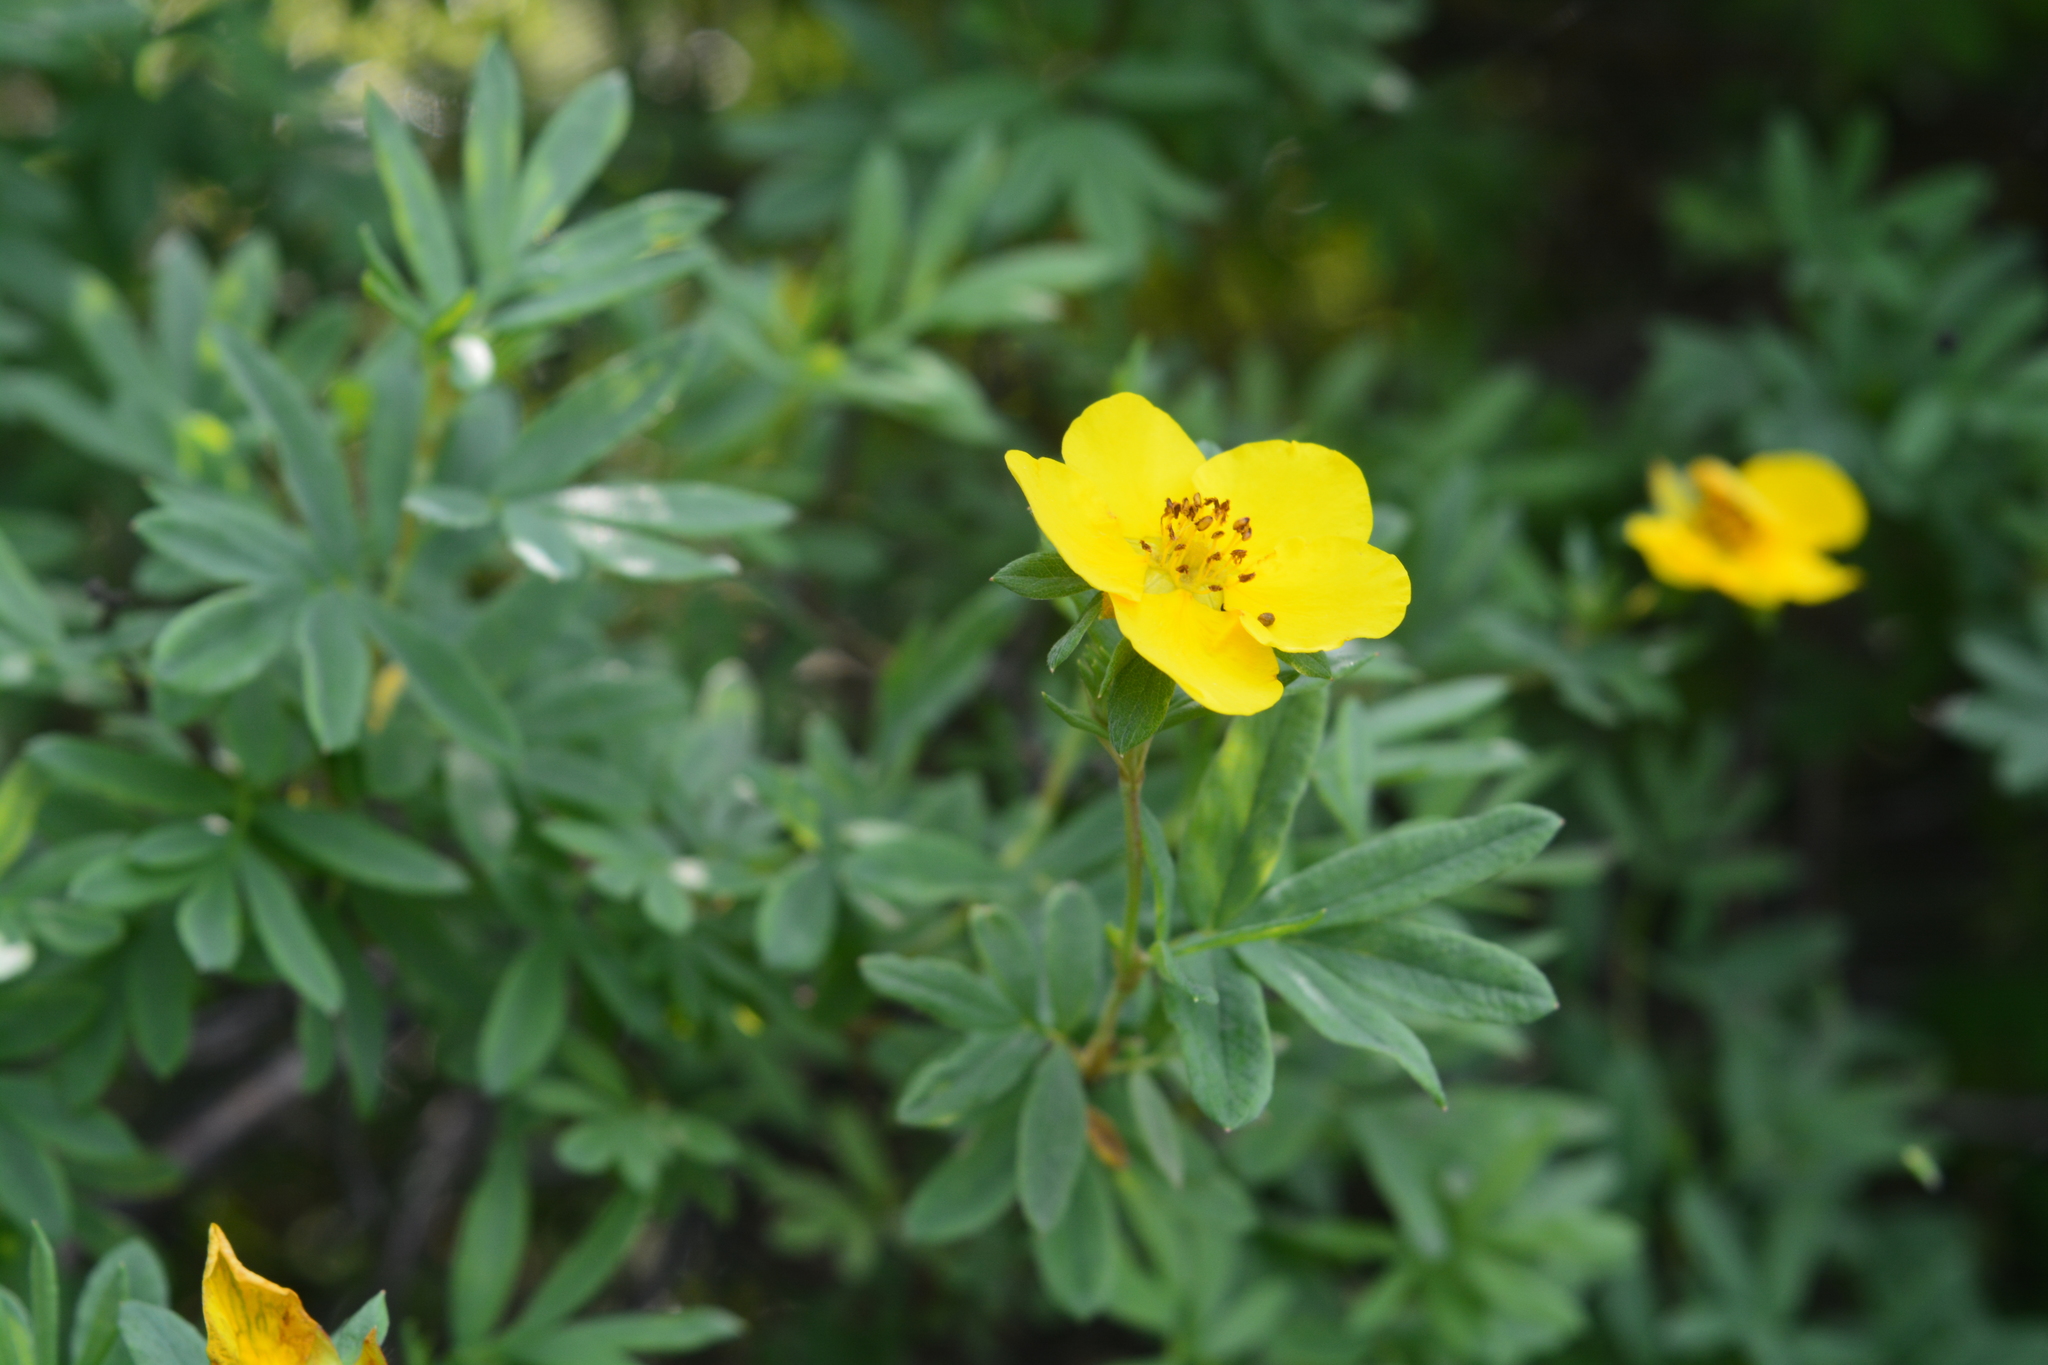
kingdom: Plantae
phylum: Tracheophyta
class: Magnoliopsida
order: Rosales
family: Rosaceae
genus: Dasiphora
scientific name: Dasiphora fruticosa
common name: Shrubby cinquefoil
